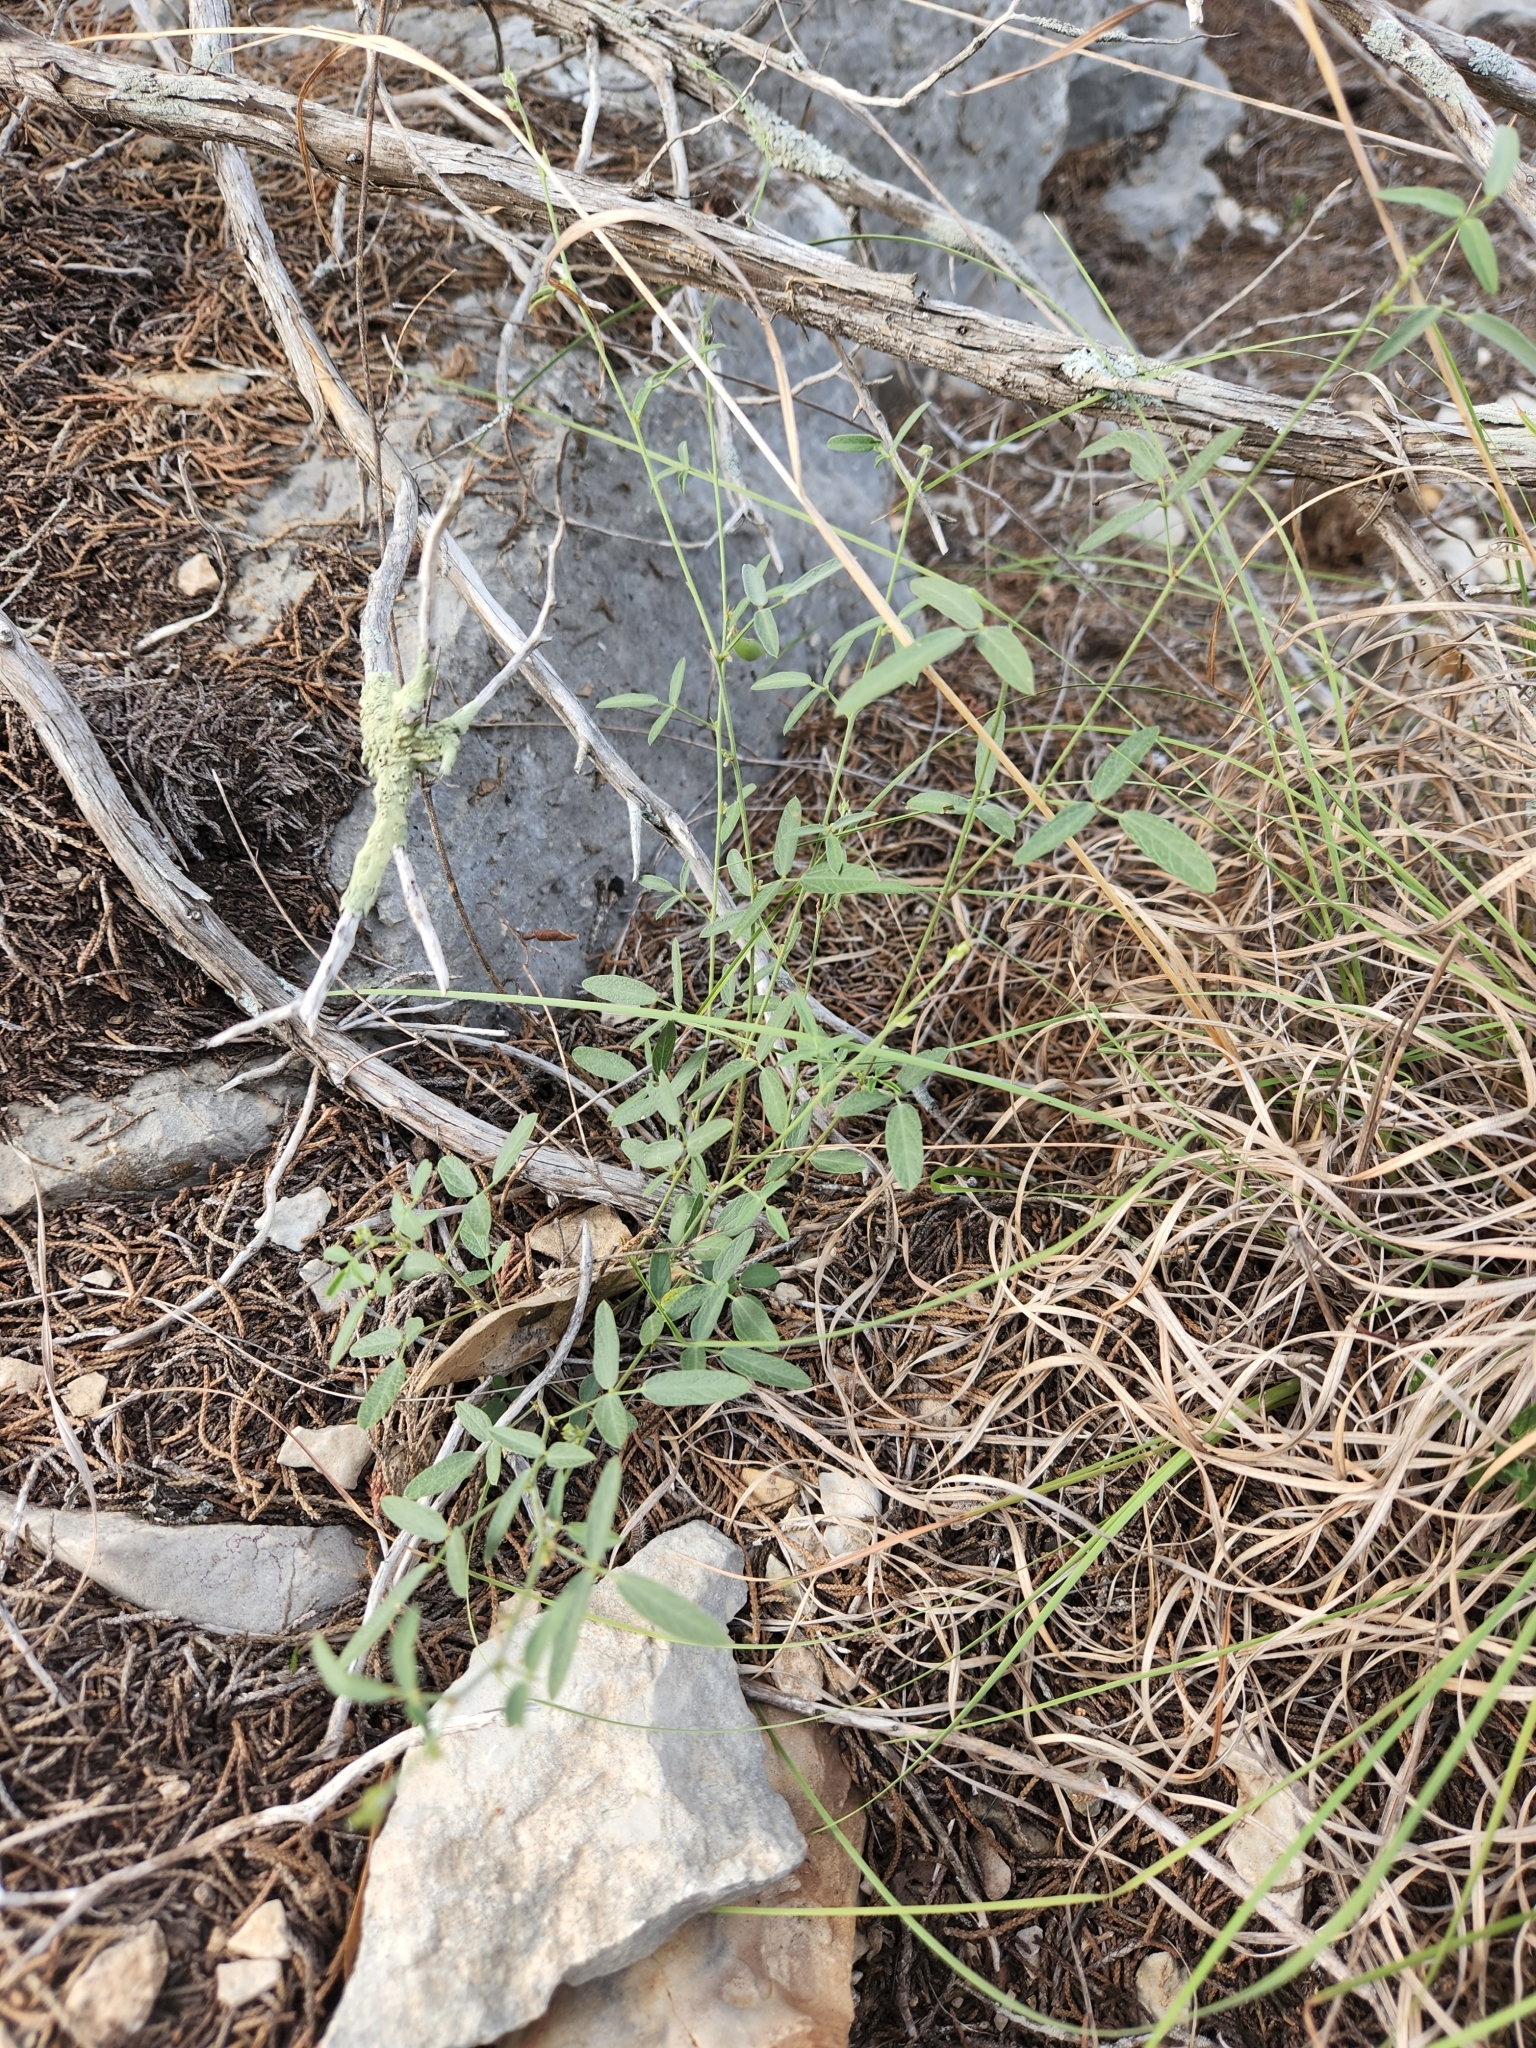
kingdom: Plantae
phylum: Tracheophyta
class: Magnoliopsida
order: Fabales
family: Fabaceae
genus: Rhynchosia
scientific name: Rhynchosia senna
